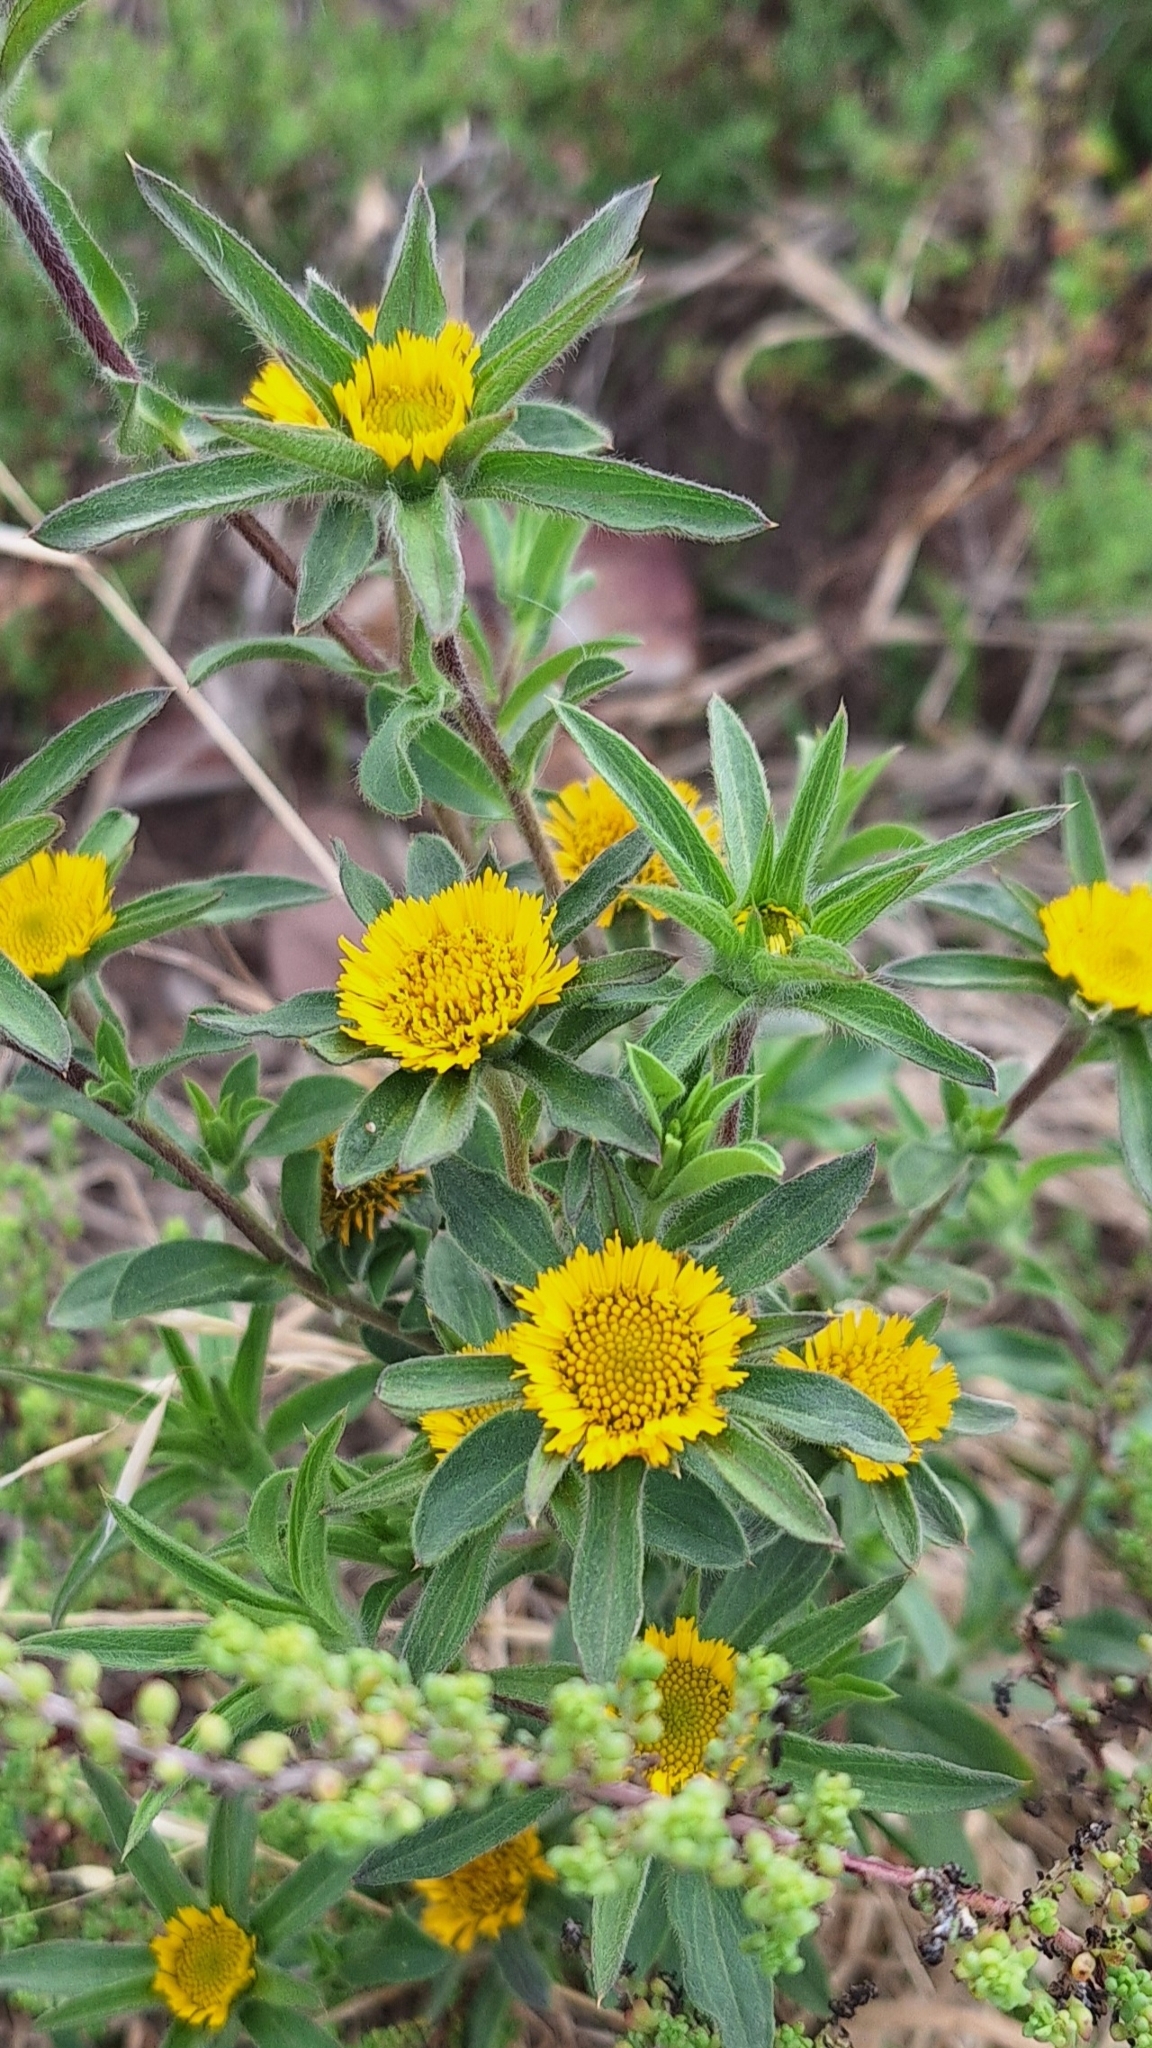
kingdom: Plantae
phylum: Tracheophyta
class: Magnoliopsida
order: Asterales
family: Asteraceae
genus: Pallenis
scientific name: Pallenis spinosa
